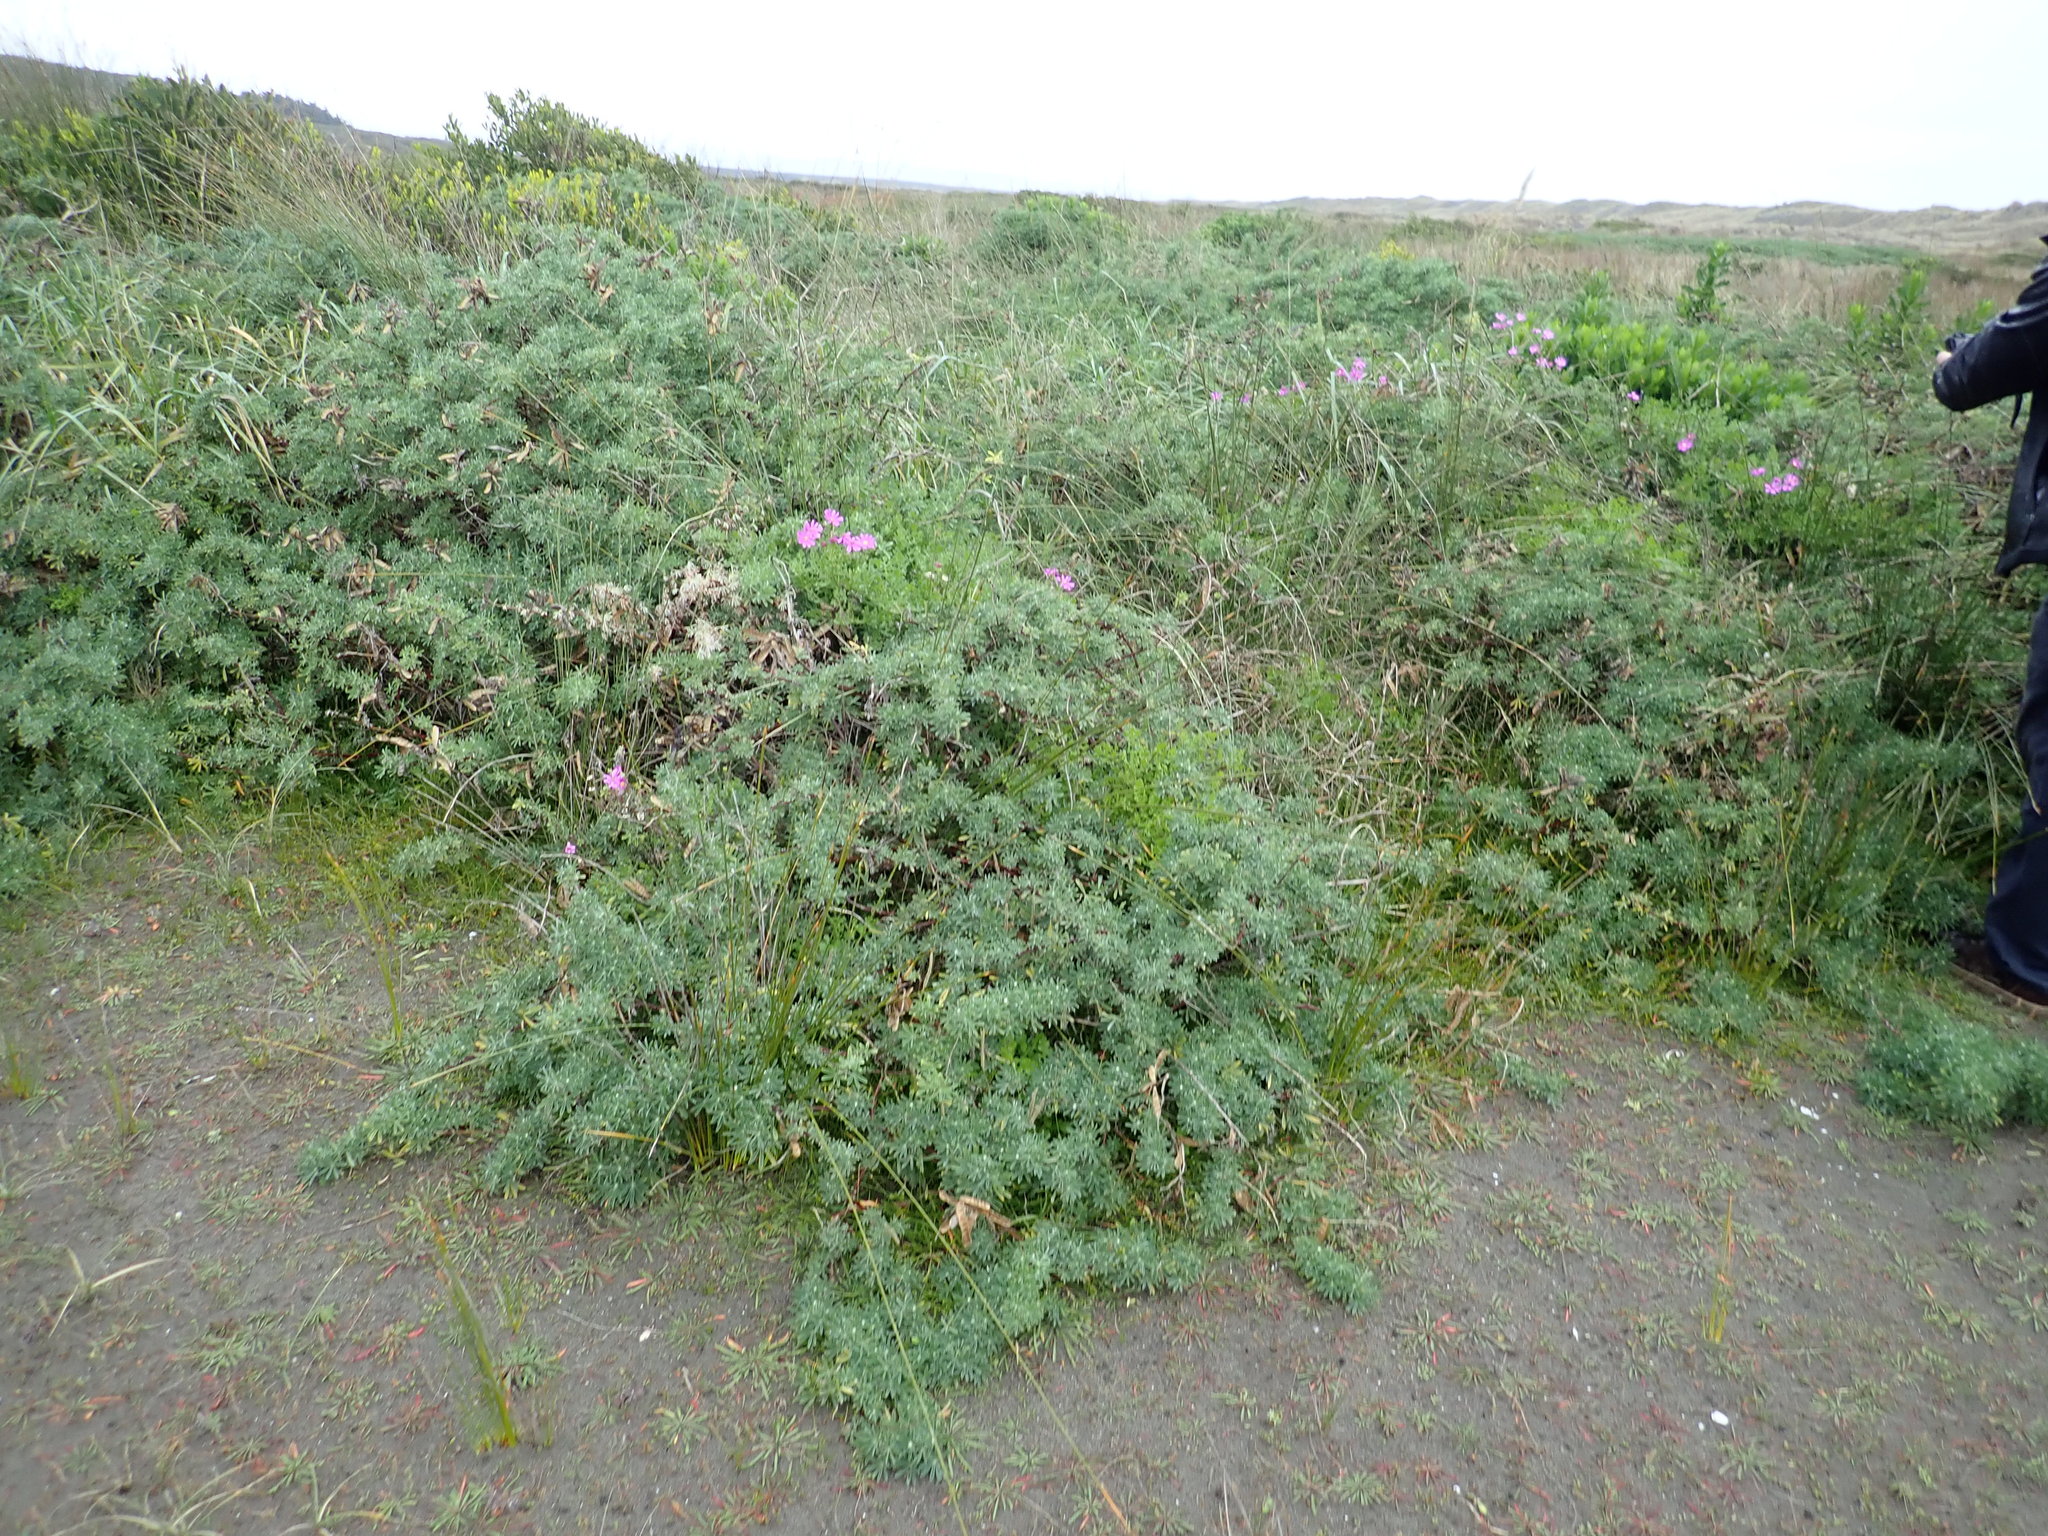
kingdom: Plantae
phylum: Tracheophyta
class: Magnoliopsida
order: Fabales
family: Fabaceae
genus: Lupinus
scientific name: Lupinus arboreus
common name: Yellow bush lupine
